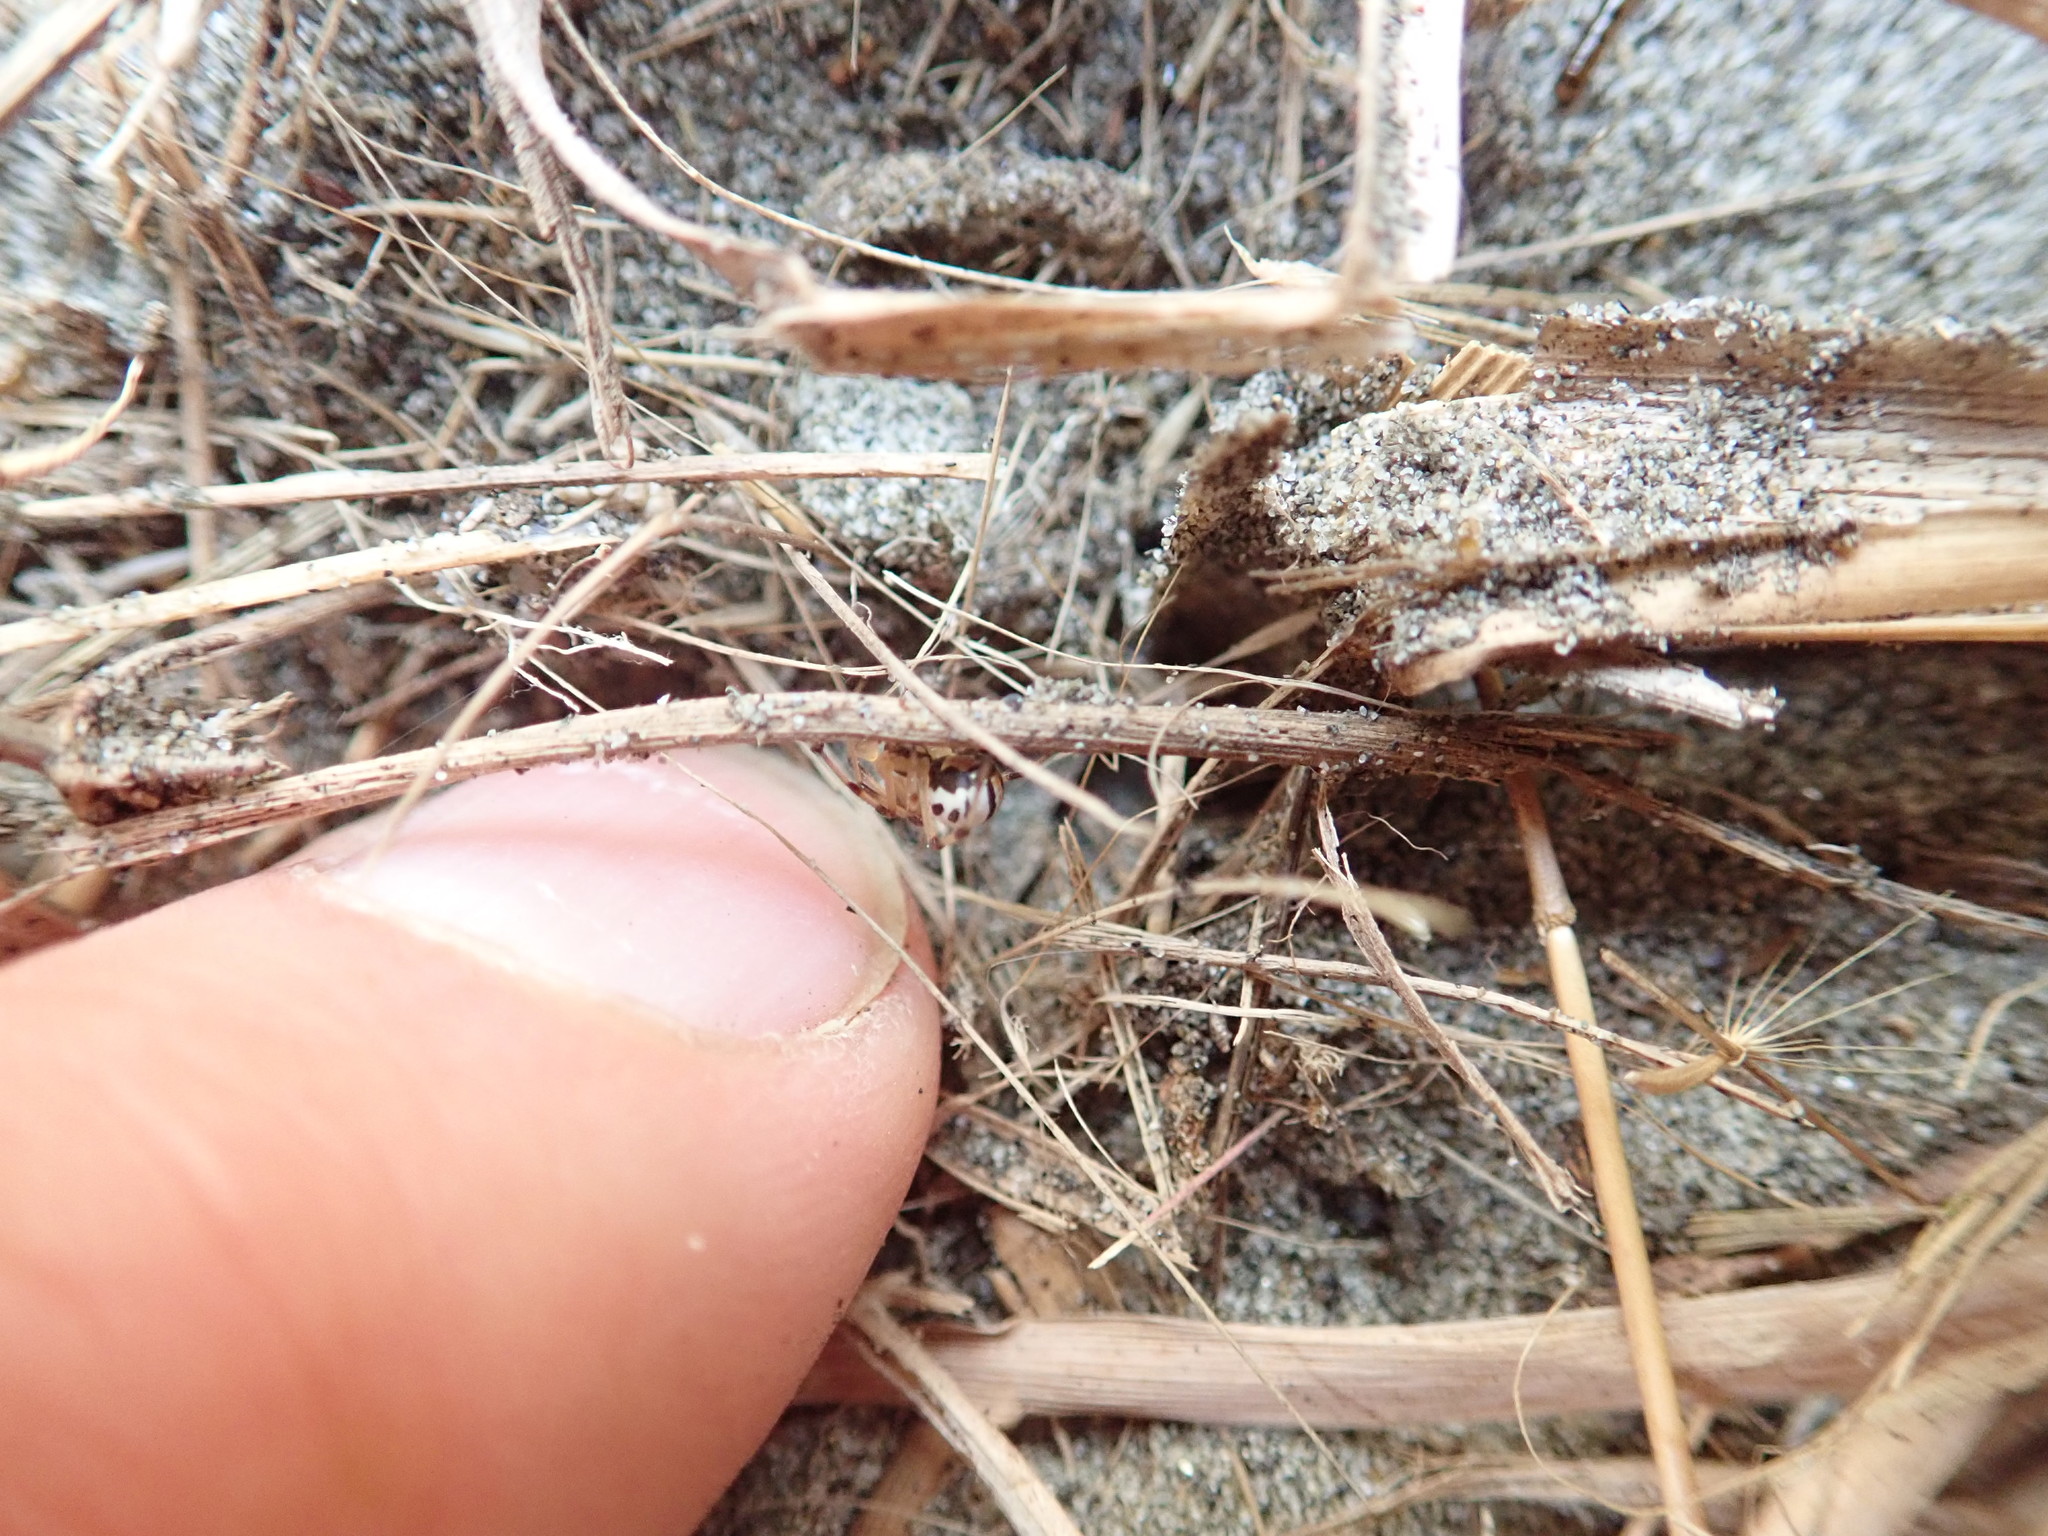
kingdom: Animalia
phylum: Arthropoda
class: Arachnida
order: Araneae
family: Theridiidae
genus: Latrodectus
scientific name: Latrodectus katipo
